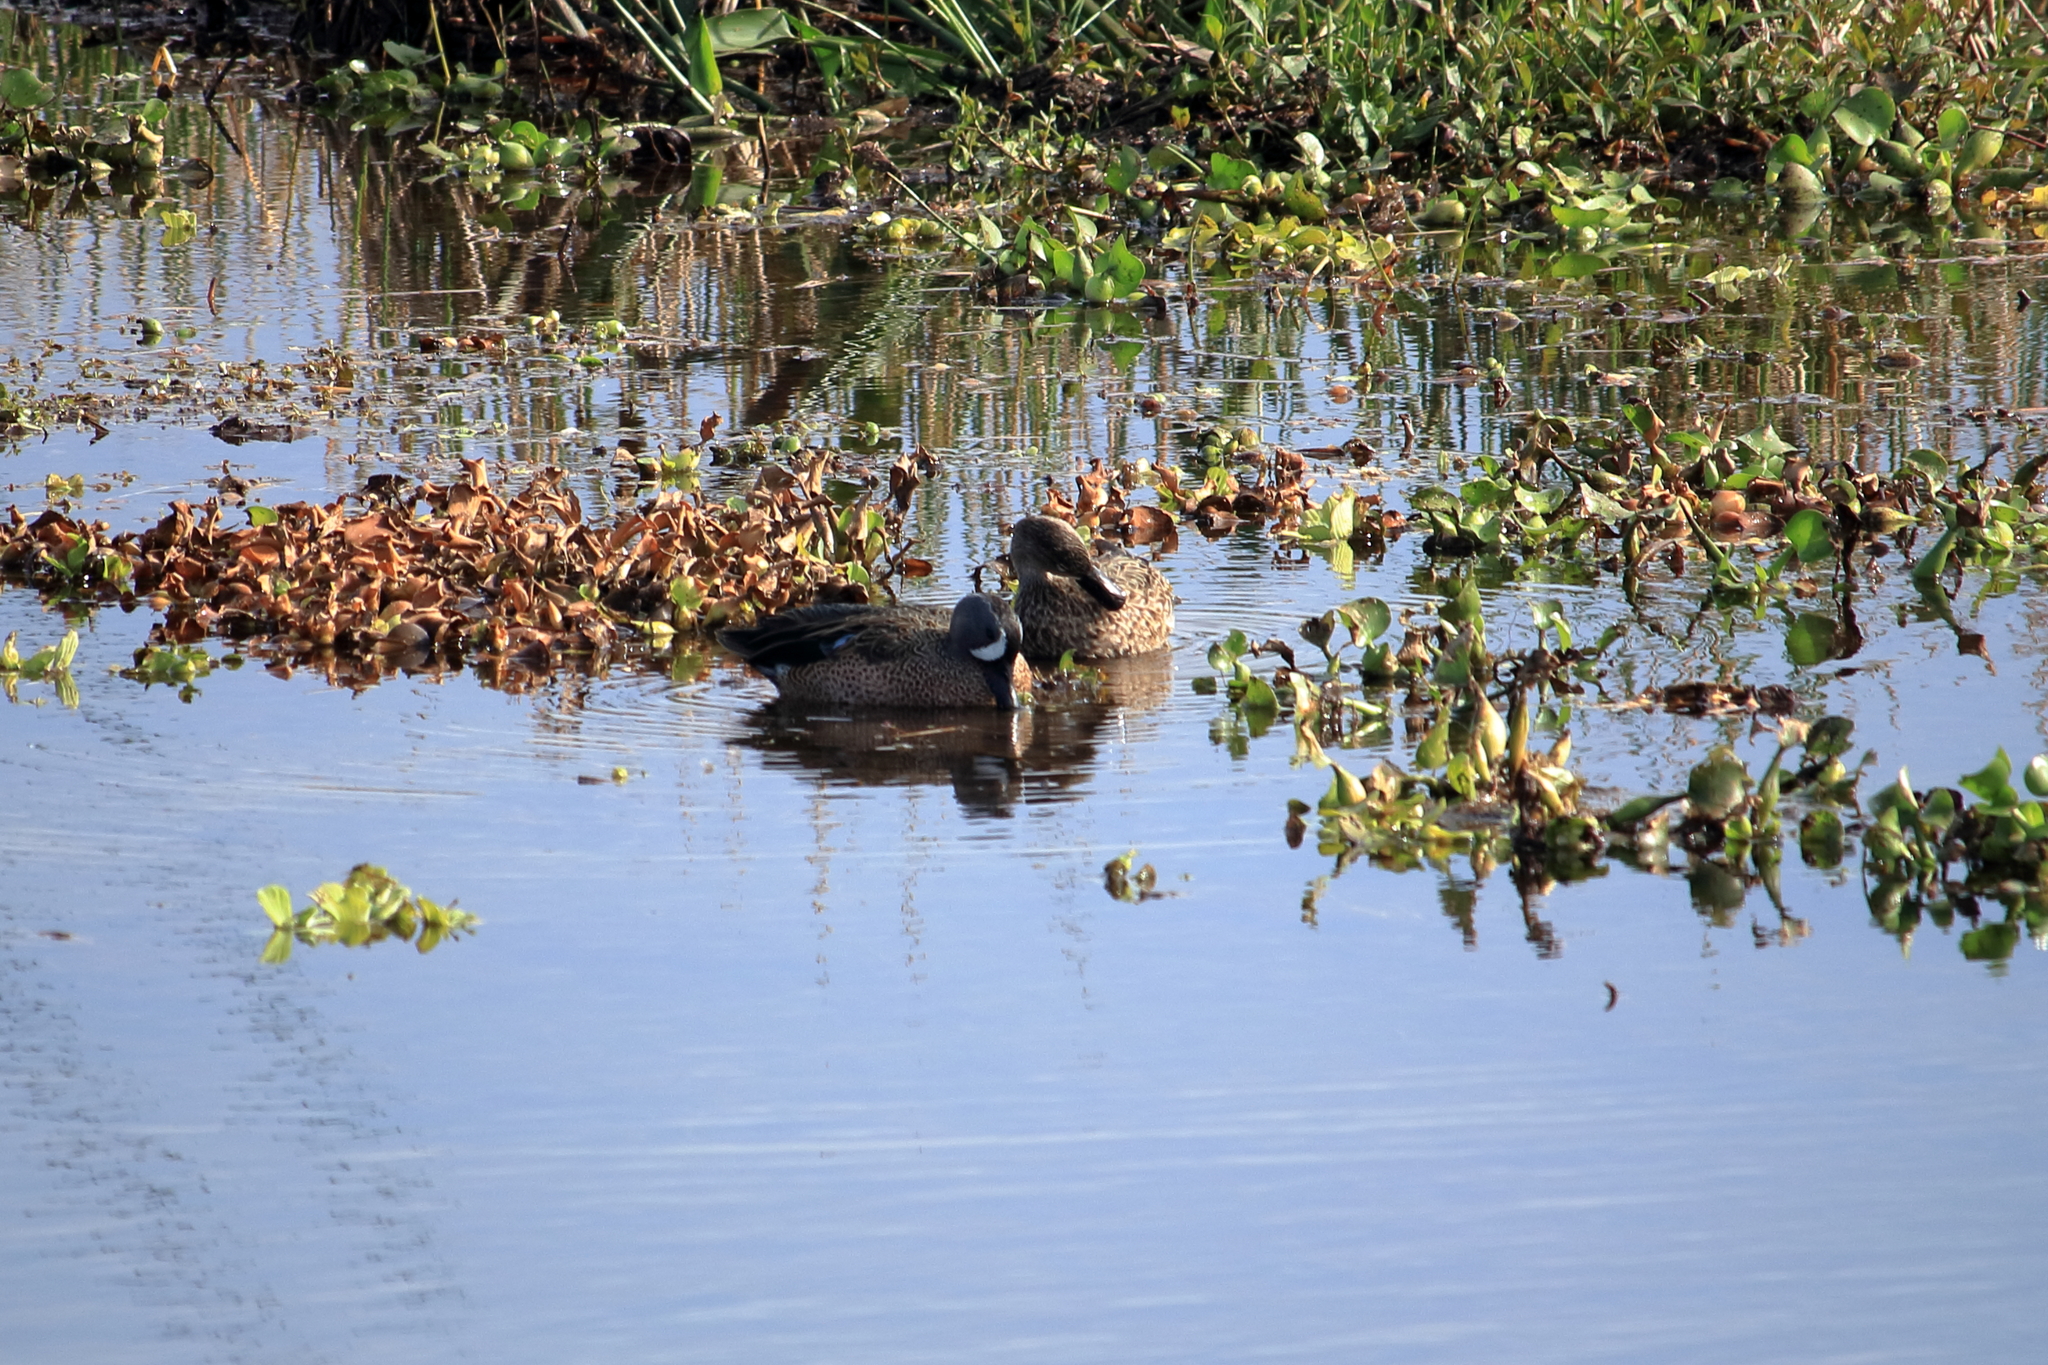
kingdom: Animalia
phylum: Chordata
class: Aves
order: Anseriformes
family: Anatidae
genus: Spatula
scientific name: Spatula discors
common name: Blue-winged teal
